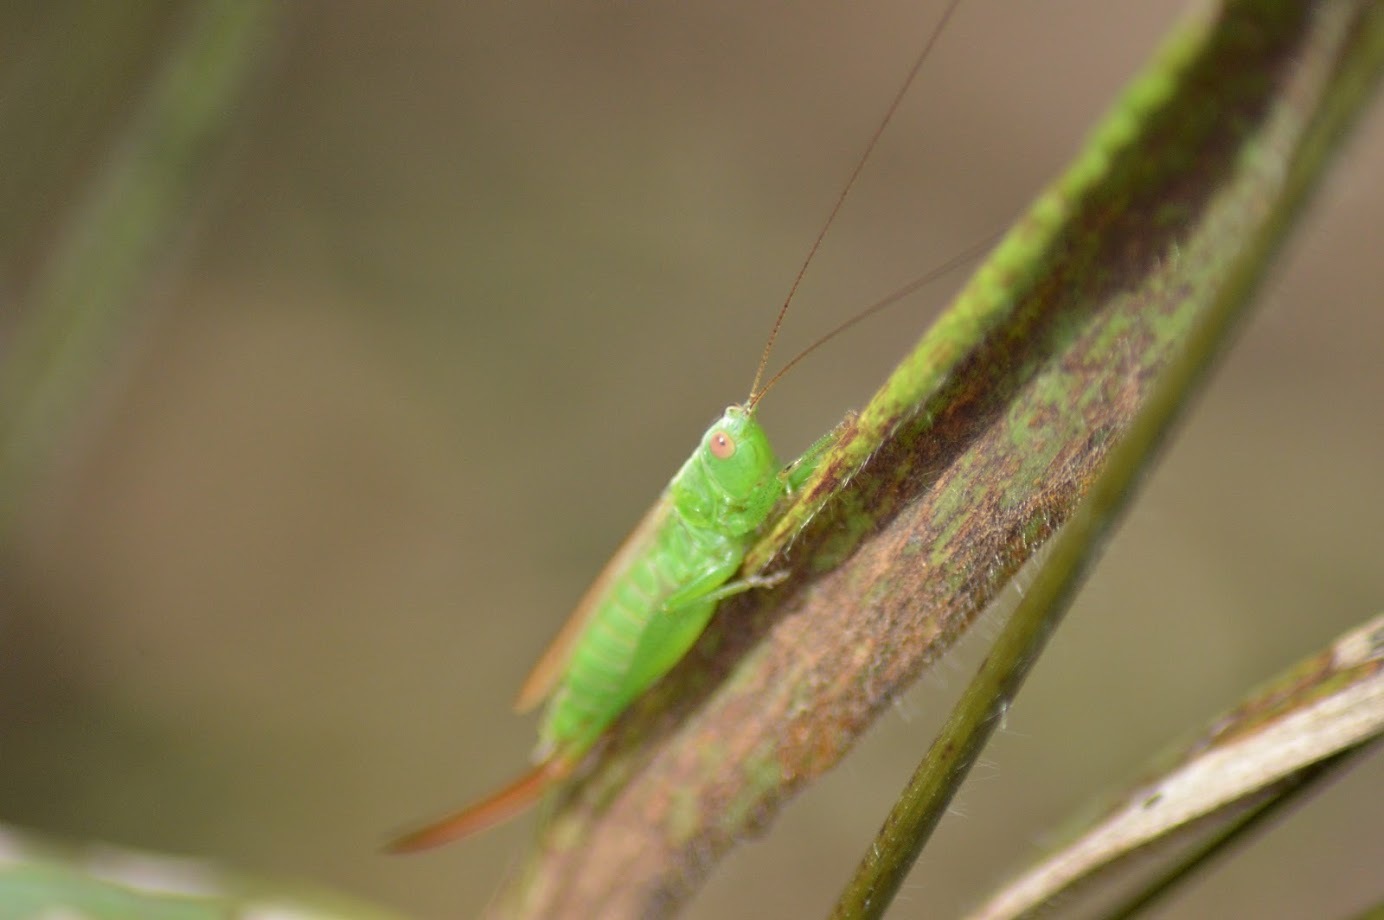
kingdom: Animalia
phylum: Arthropoda
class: Insecta
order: Orthoptera
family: Tettigoniidae
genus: Conocephalus
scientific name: Conocephalus fuscus
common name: Long-winged conehead
